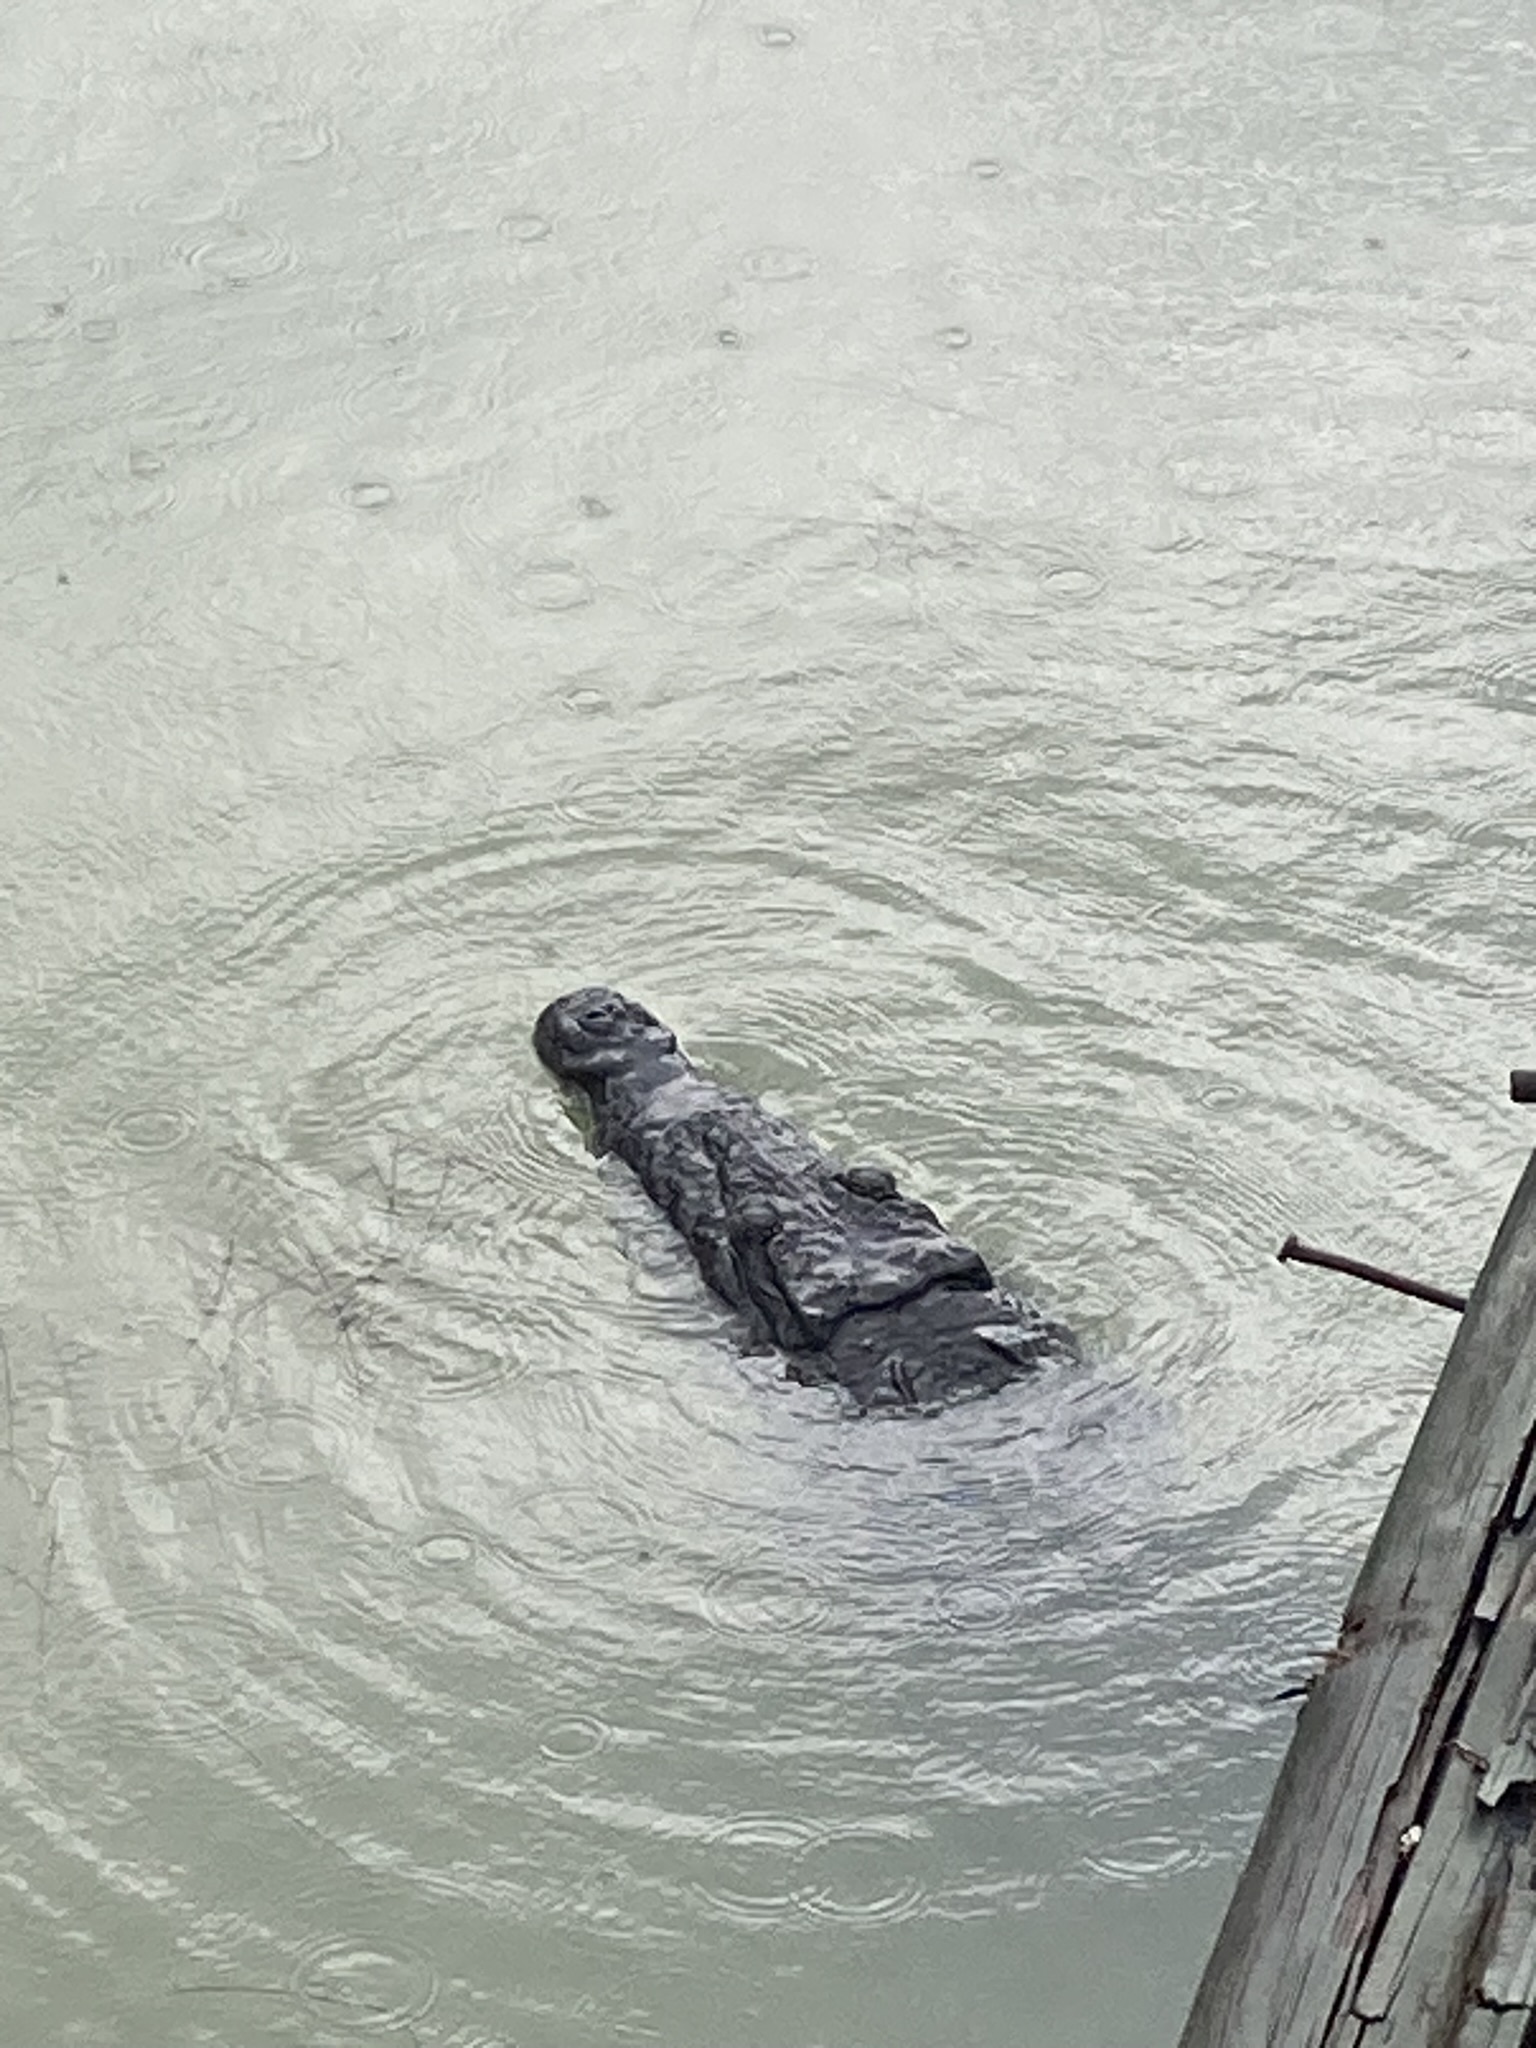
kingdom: Animalia
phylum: Chordata
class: Crocodylia
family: Crocodylidae
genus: Crocodylus
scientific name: Crocodylus acutus
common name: American crocodile
